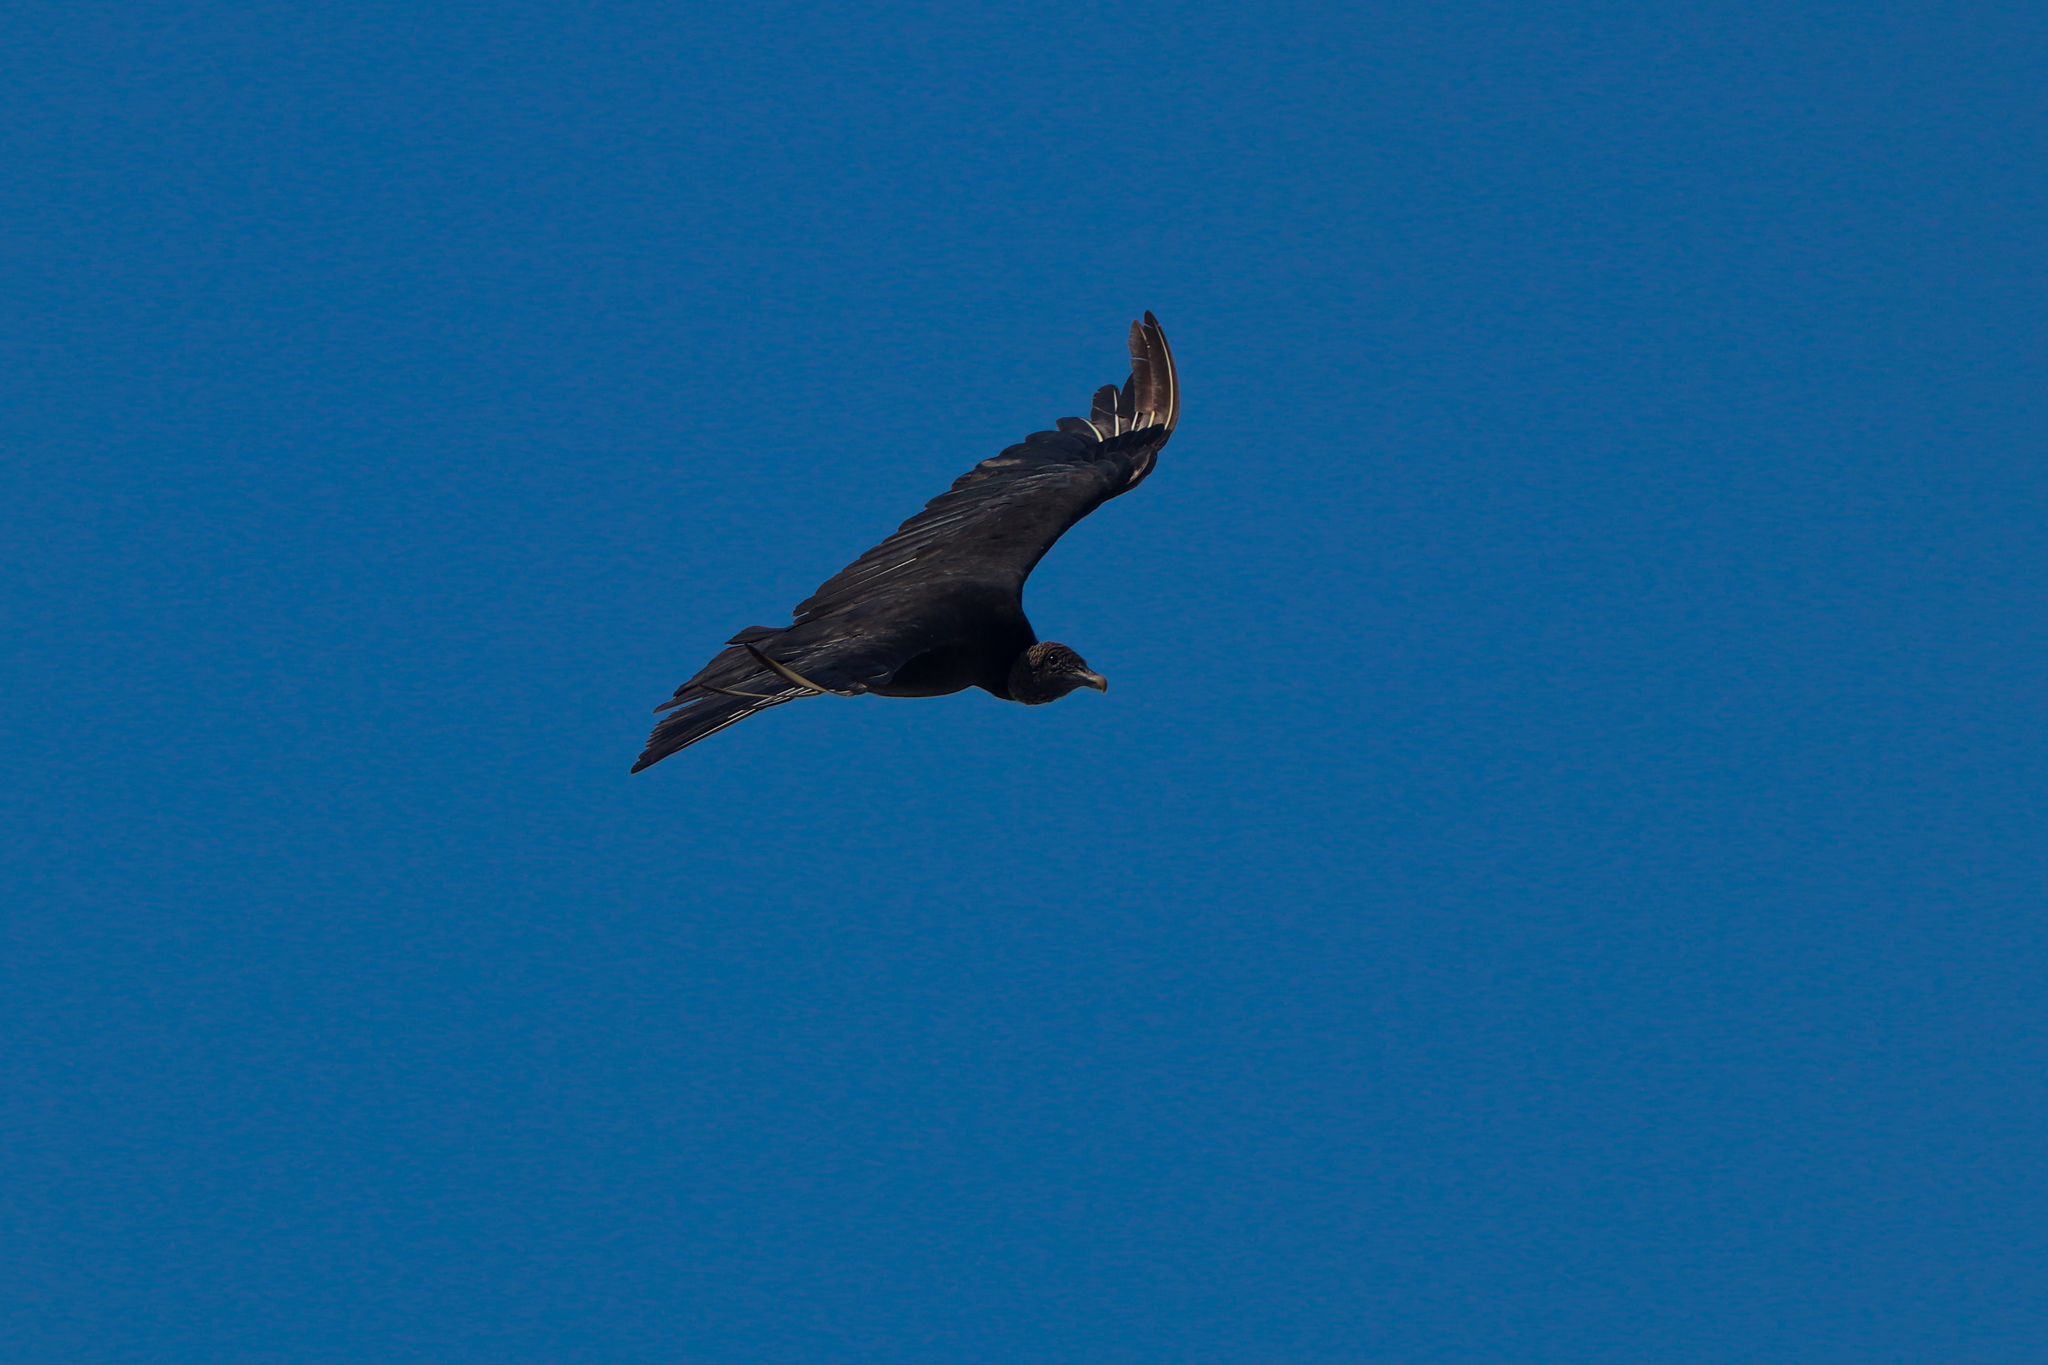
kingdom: Animalia
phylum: Chordata
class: Aves
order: Accipitriformes
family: Cathartidae
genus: Coragyps
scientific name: Coragyps atratus
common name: Black vulture
